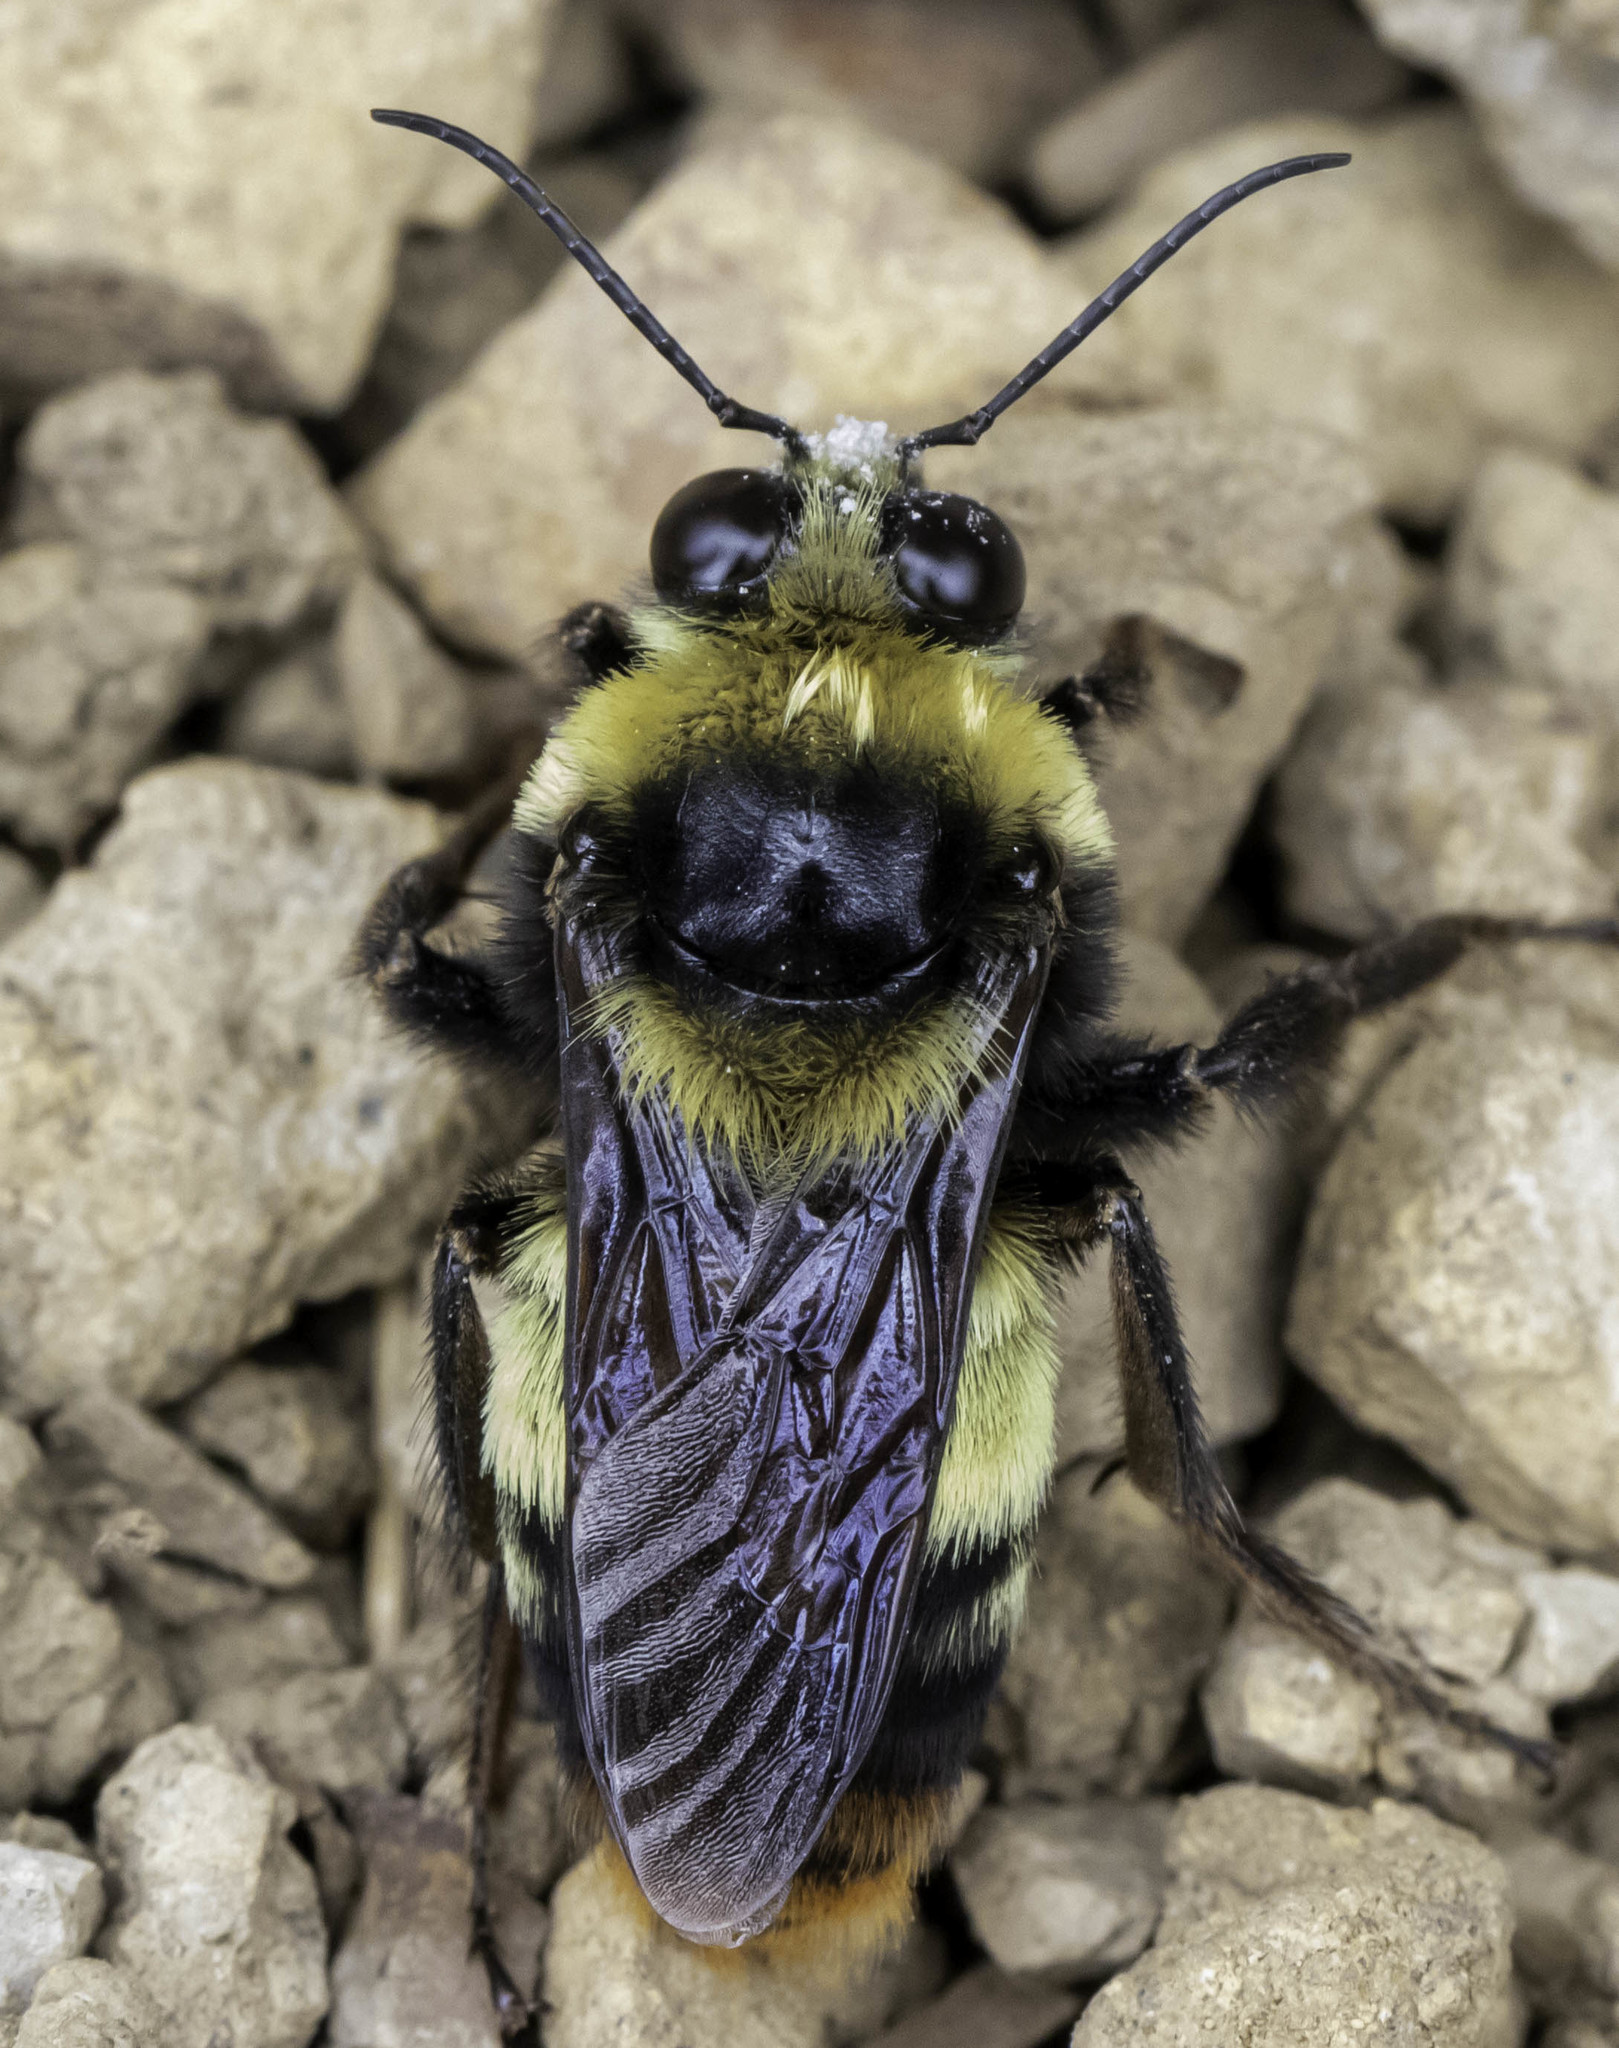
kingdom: Animalia
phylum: Arthropoda
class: Insecta
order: Hymenoptera
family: Apidae
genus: Bombus
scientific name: Bombus crotchii
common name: Crotch bumble bee
